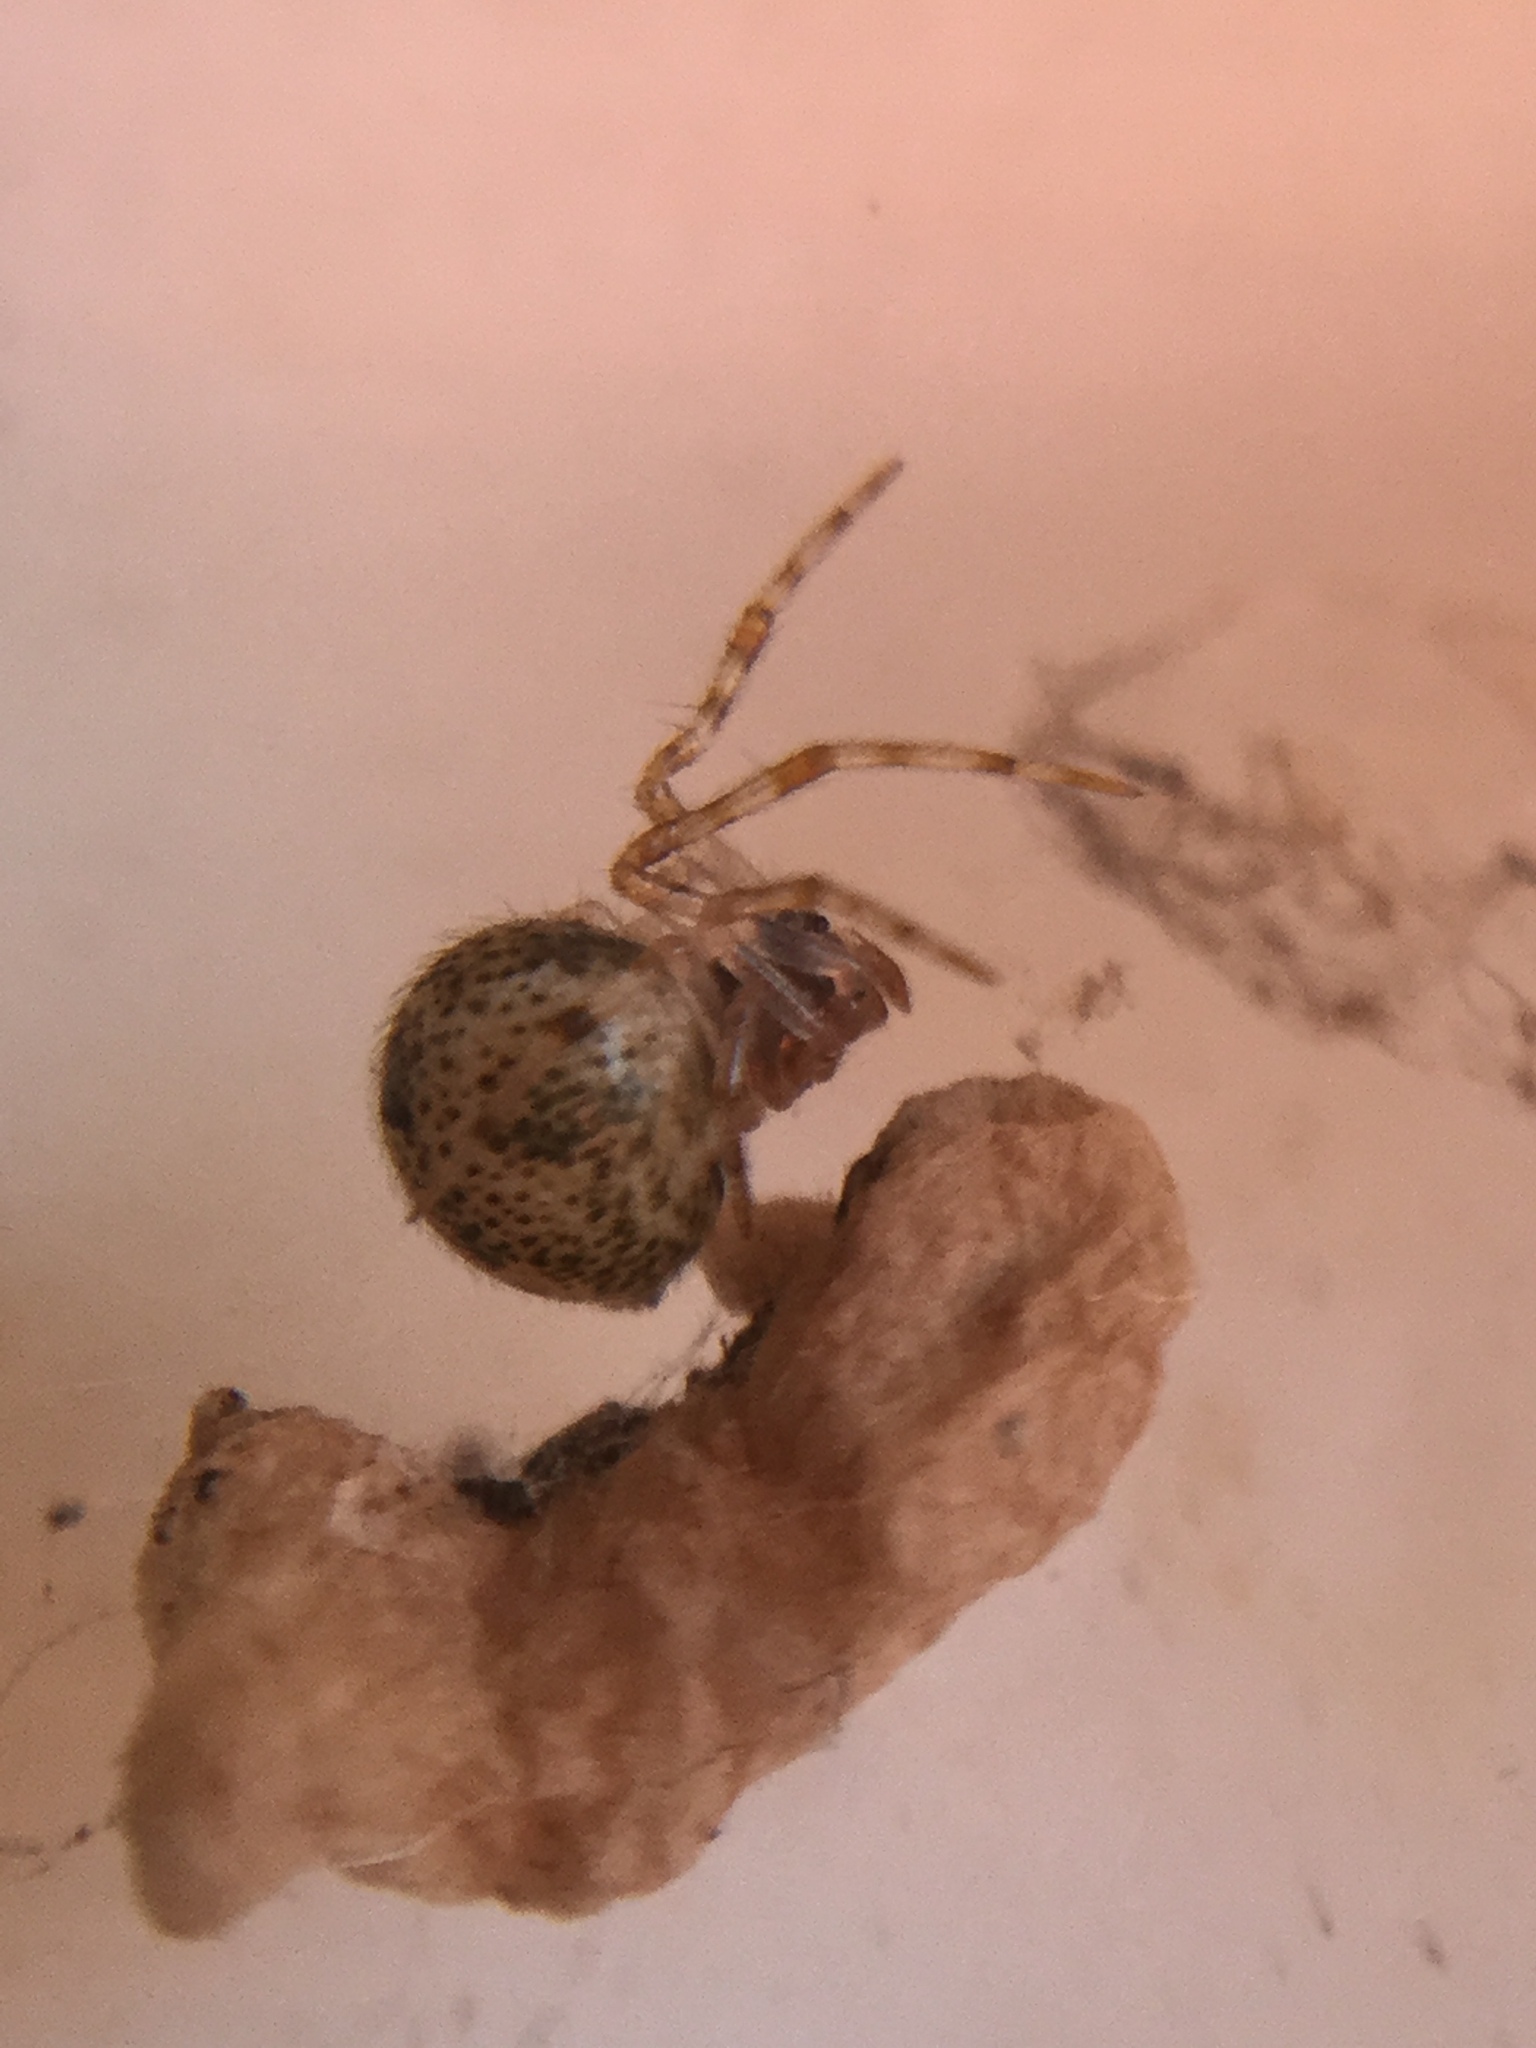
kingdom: Animalia
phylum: Arthropoda
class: Arachnida
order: Araneae
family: Theridiidae
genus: Parasteatoda
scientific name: Parasteatoda tepidariorum
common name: Common house spider
